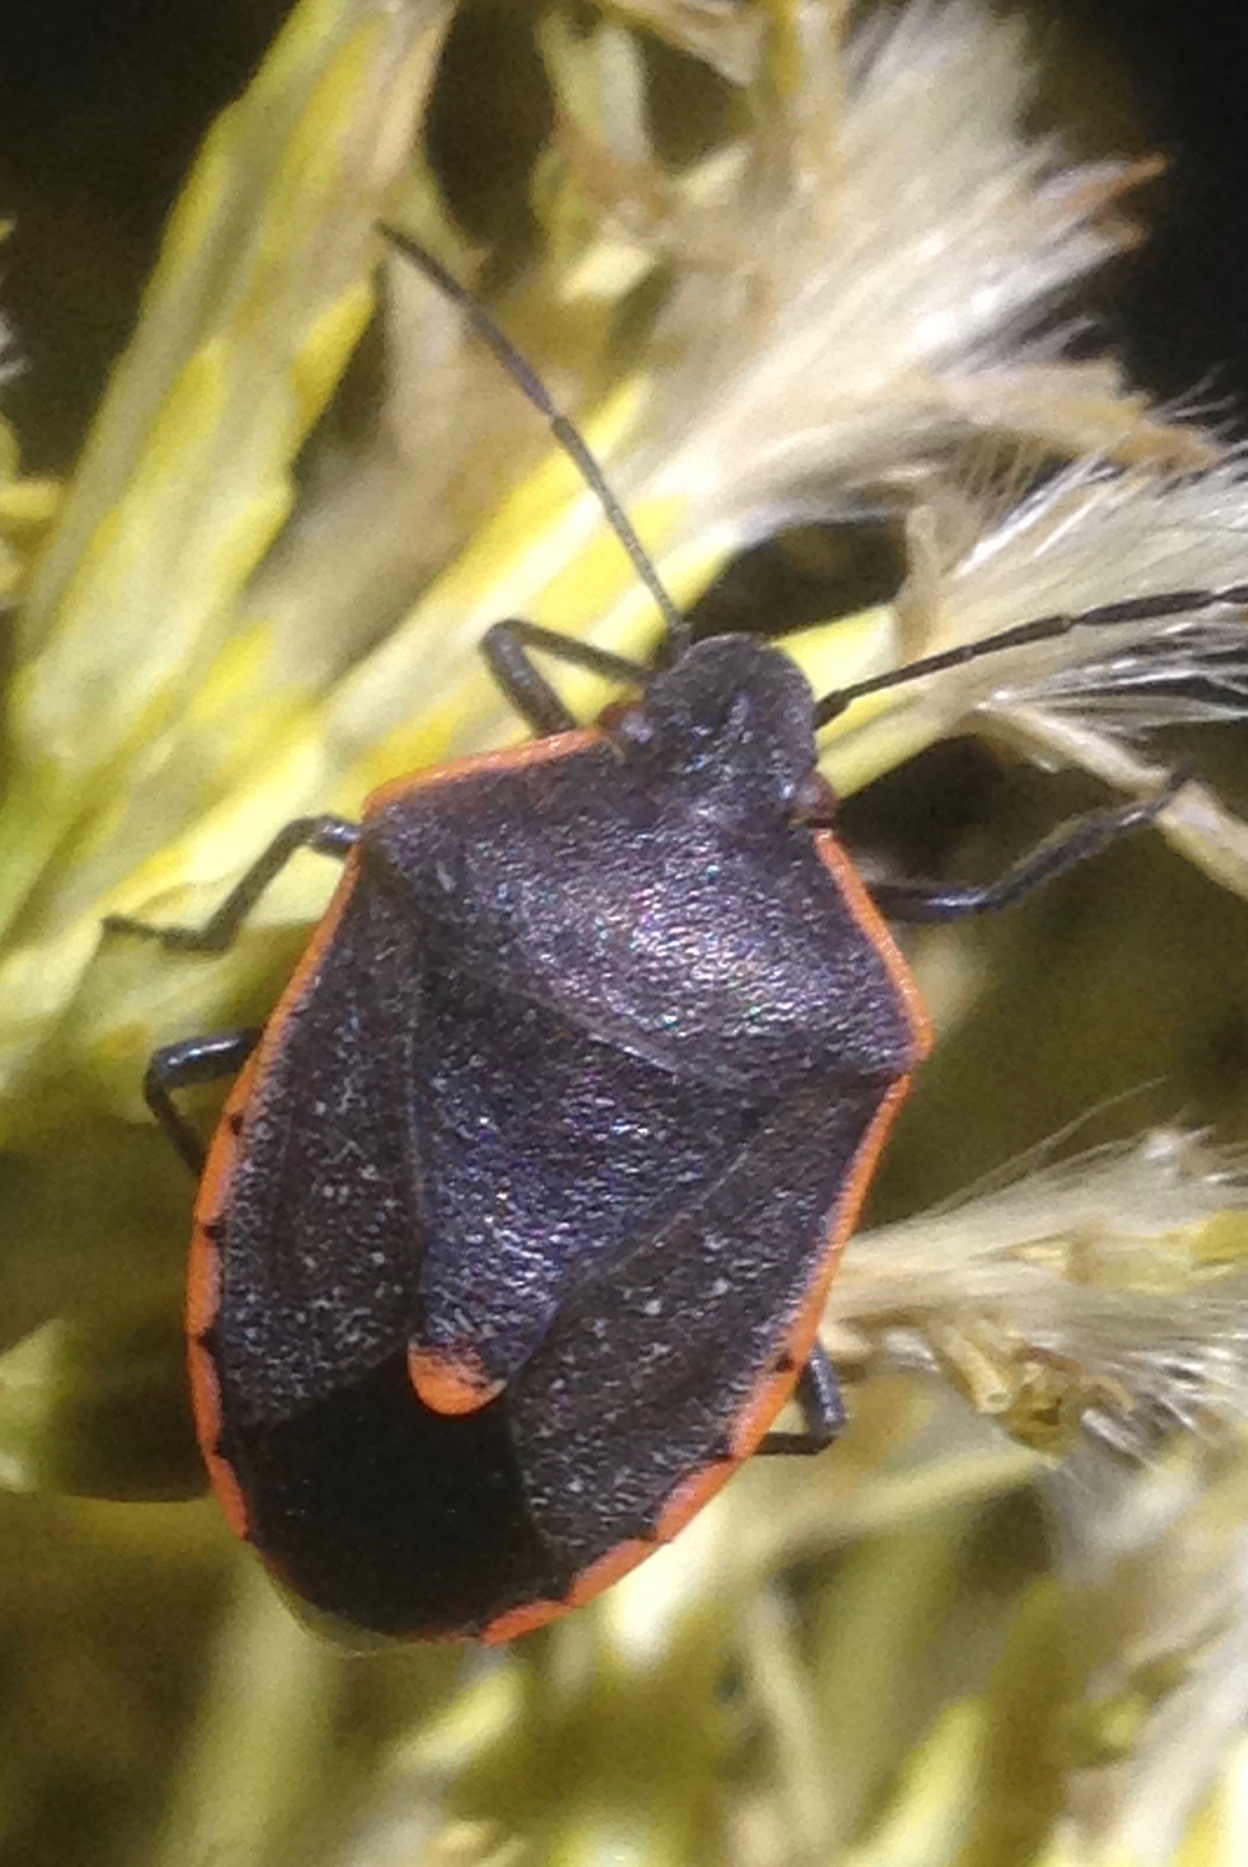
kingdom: Animalia
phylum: Arthropoda
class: Insecta
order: Hemiptera
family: Pentatomidae
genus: Chlorochroa
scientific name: Chlorochroa ligata
